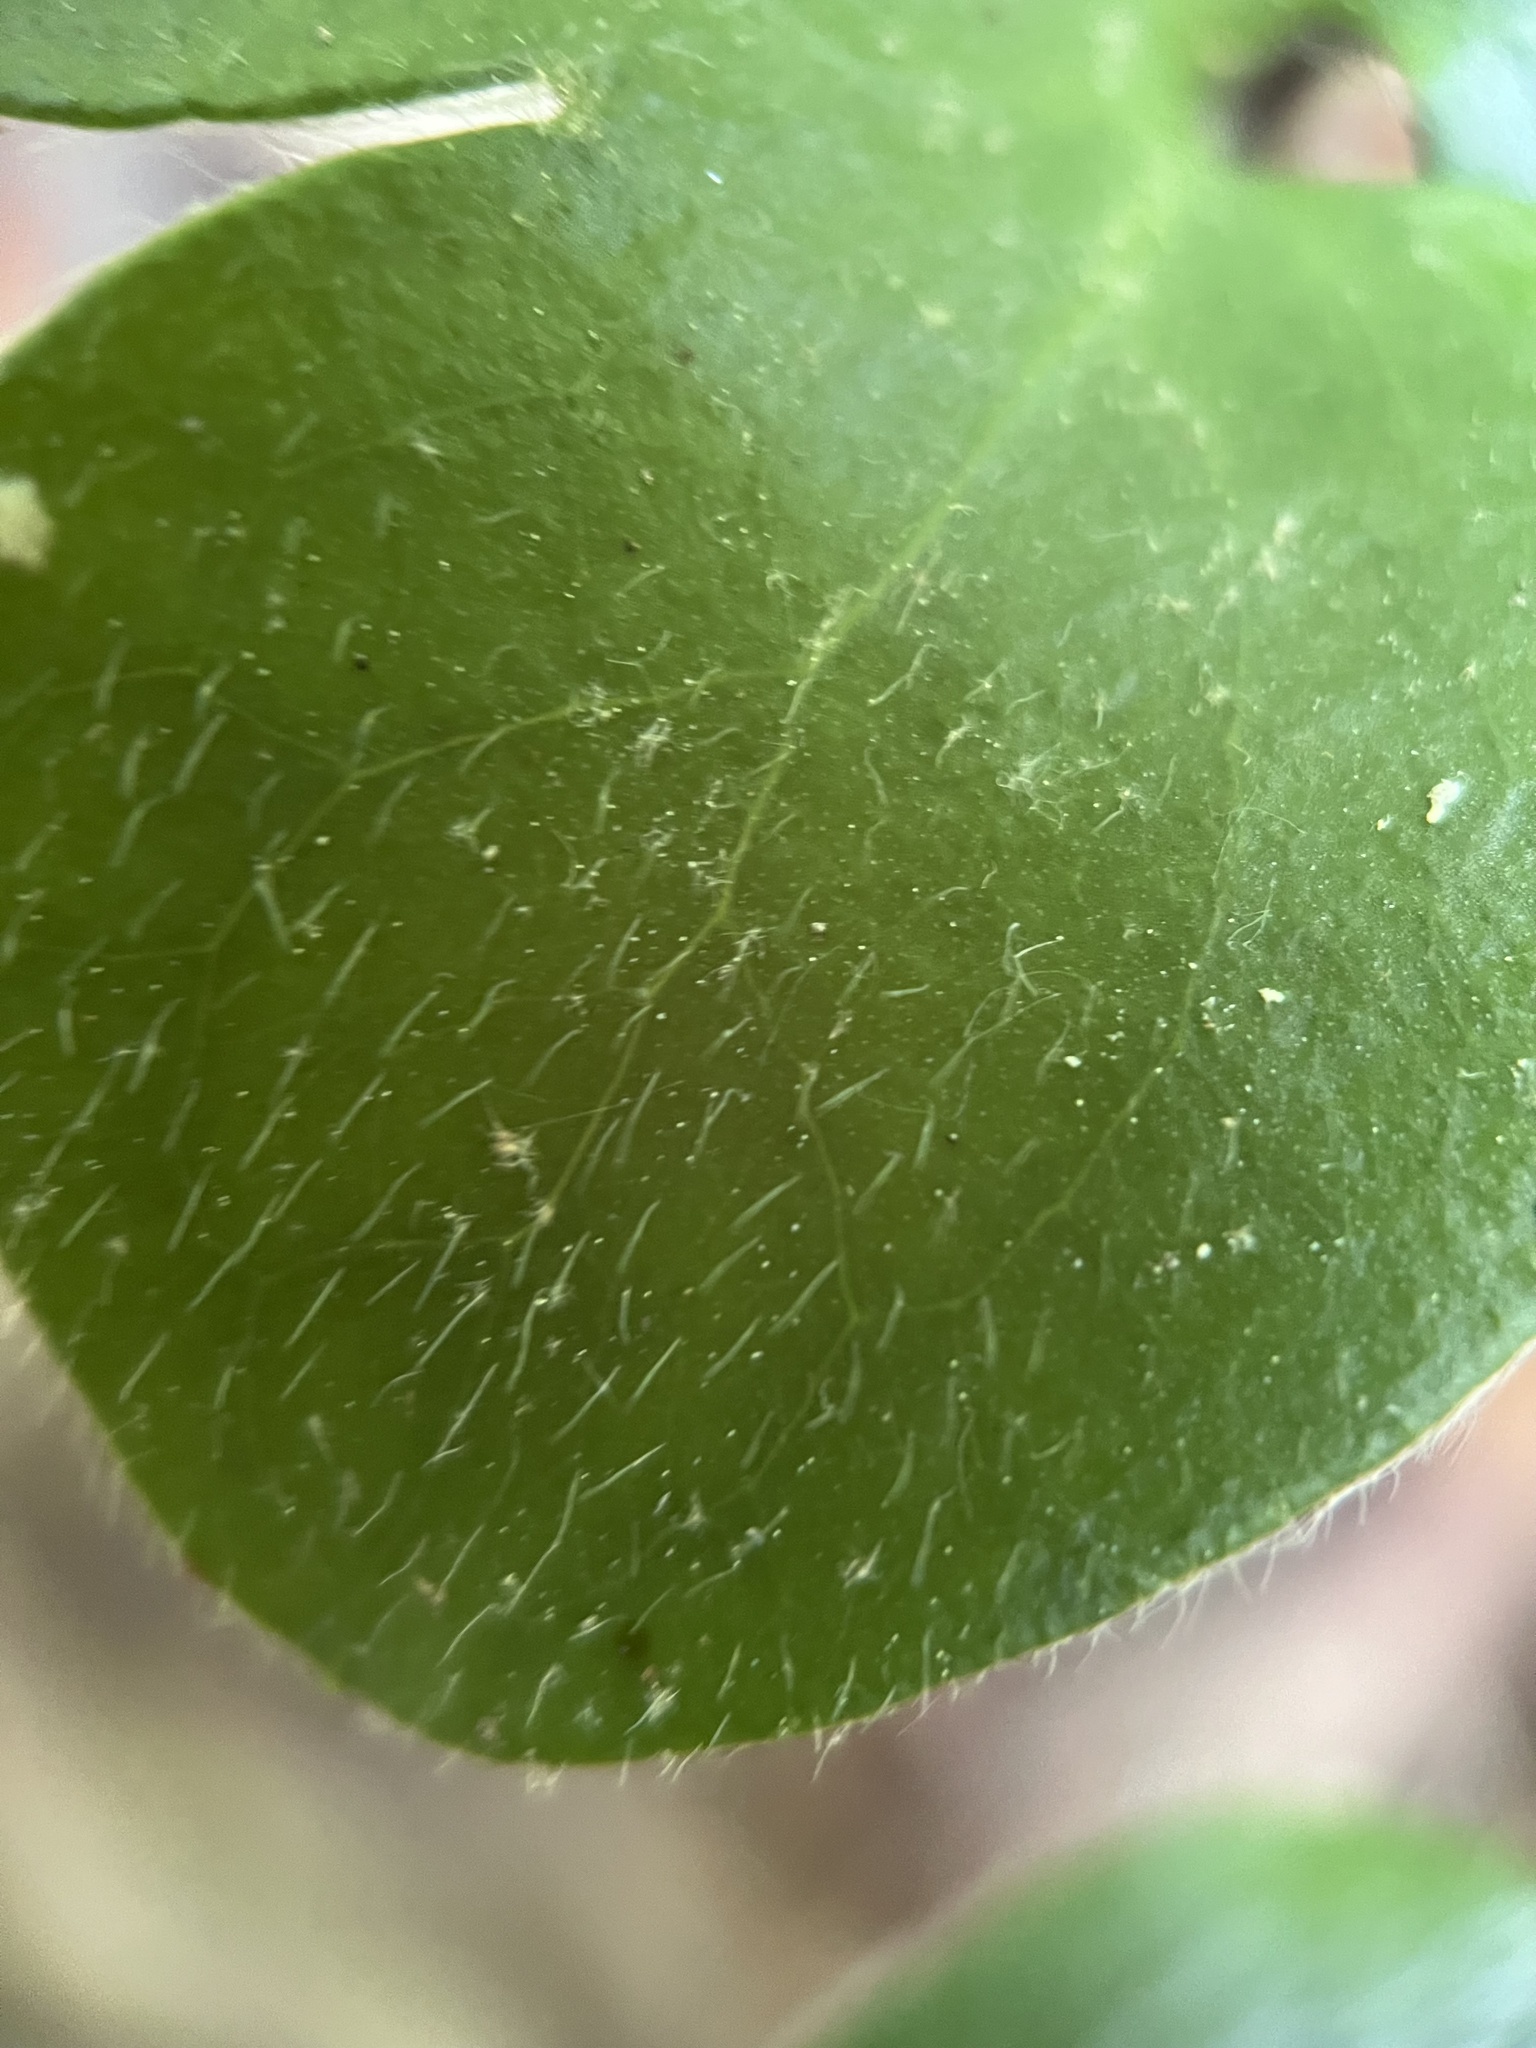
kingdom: Plantae
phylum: Tracheophyta
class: Magnoliopsida
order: Ranunculales
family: Ranunculaceae
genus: Hepatica
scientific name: Hepatica americana
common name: American hepatica
